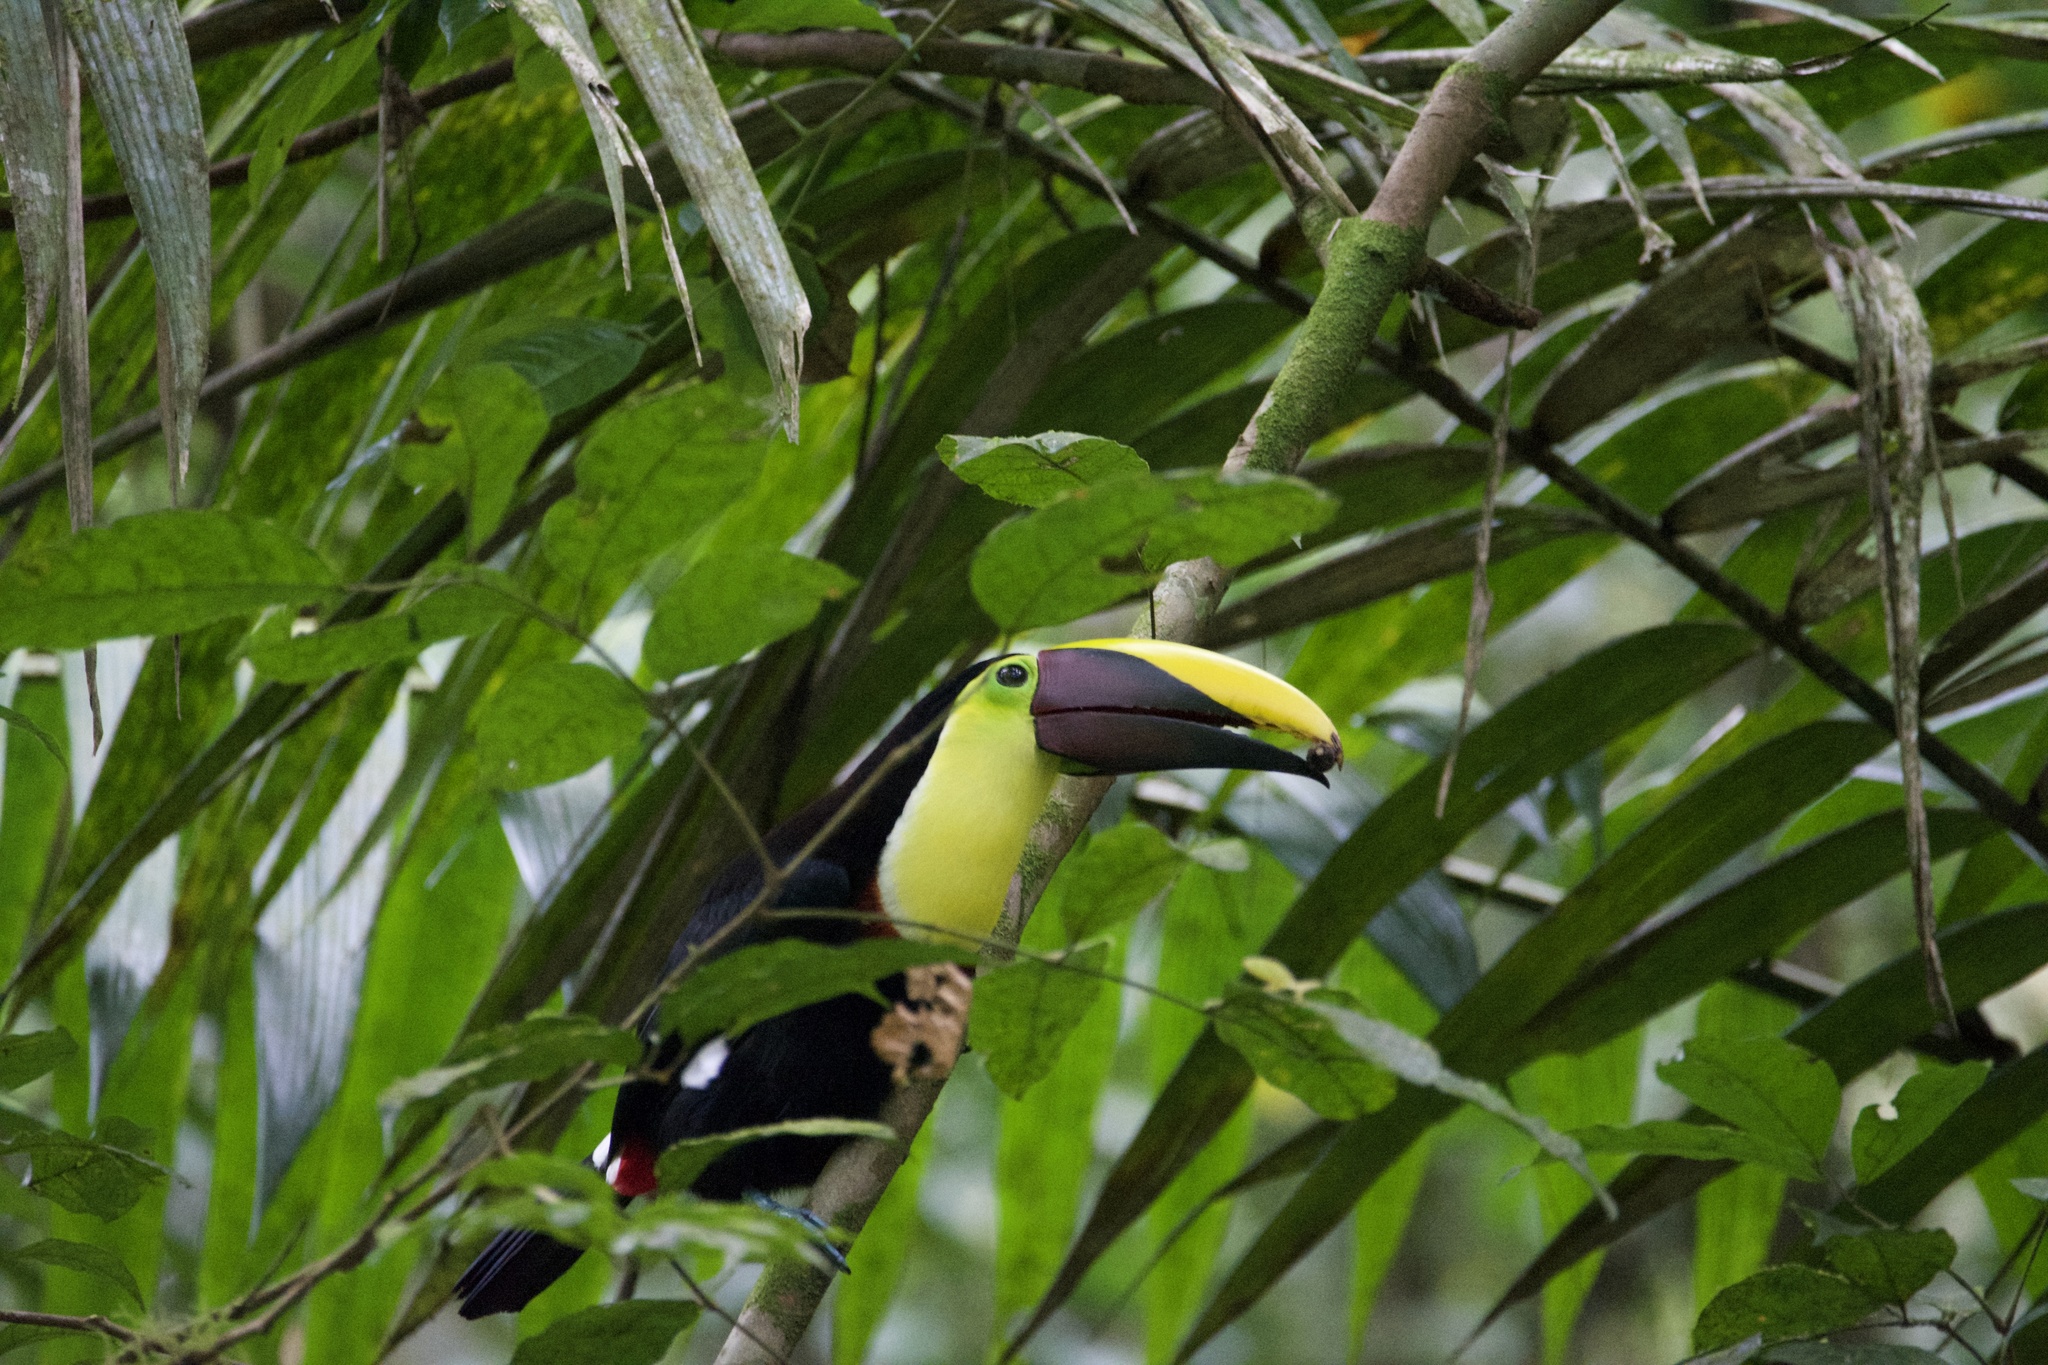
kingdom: Animalia
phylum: Chordata
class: Aves
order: Piciformes
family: Ramphastidae
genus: Ramphastos
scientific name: Ramphastos ambiguus
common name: Yellow-throated toucan
